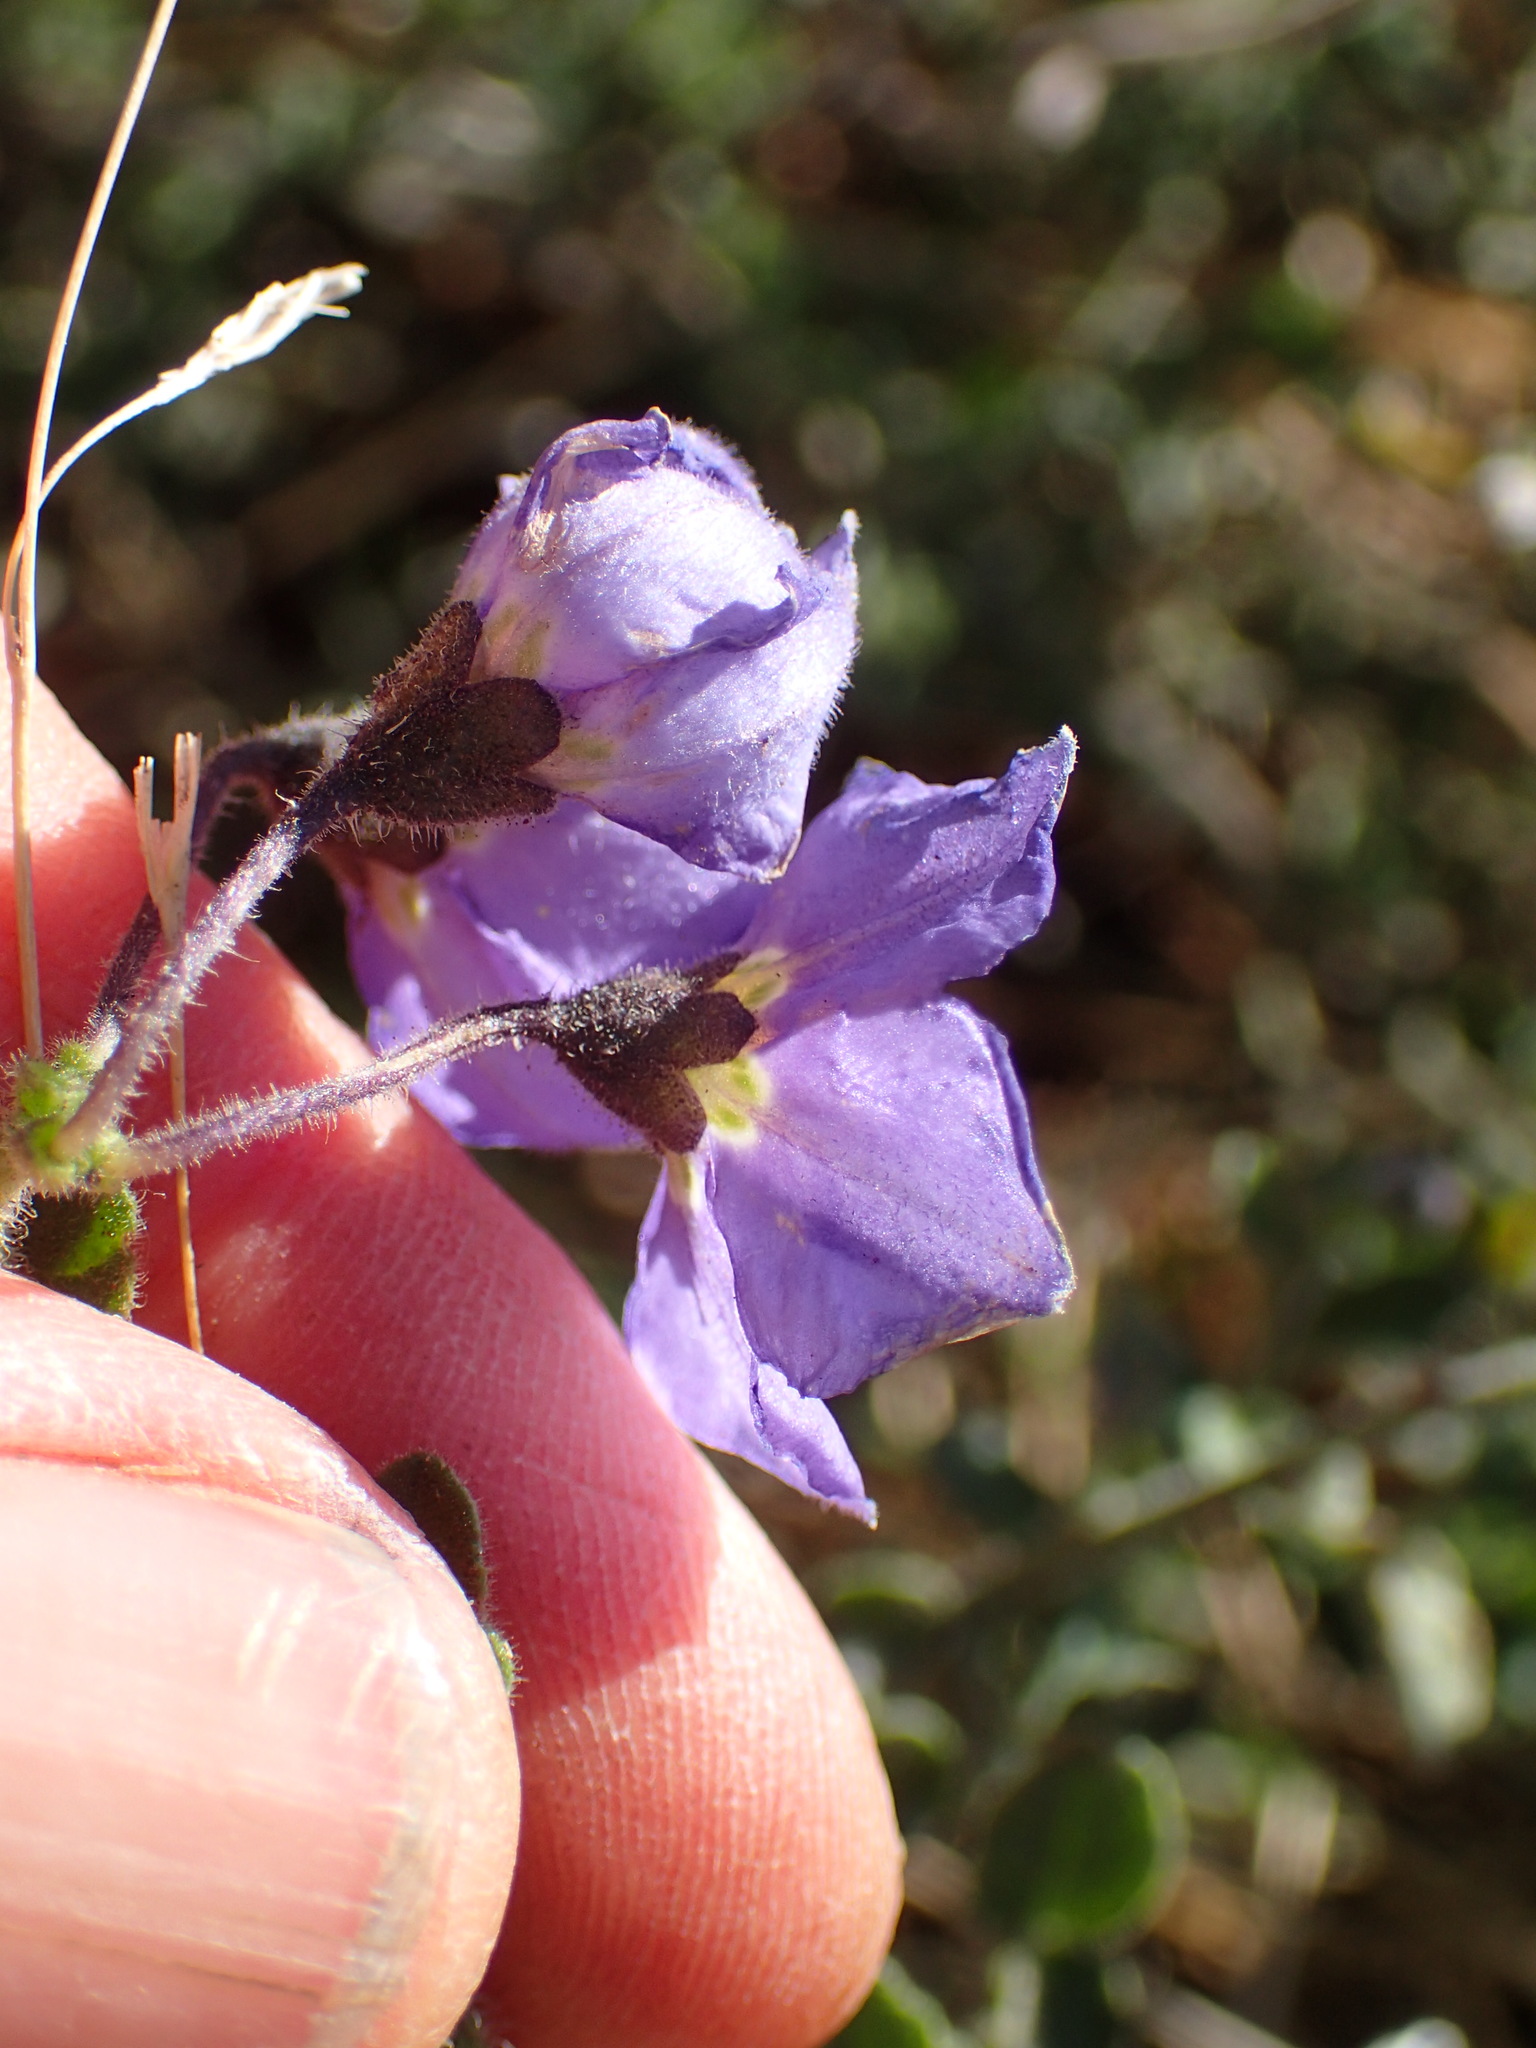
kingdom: Plantae
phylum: Tracheophyta
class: Magnoliopsida
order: Solanales
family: Solanaceae
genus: Solanum
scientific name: Solanum umbelliferum
